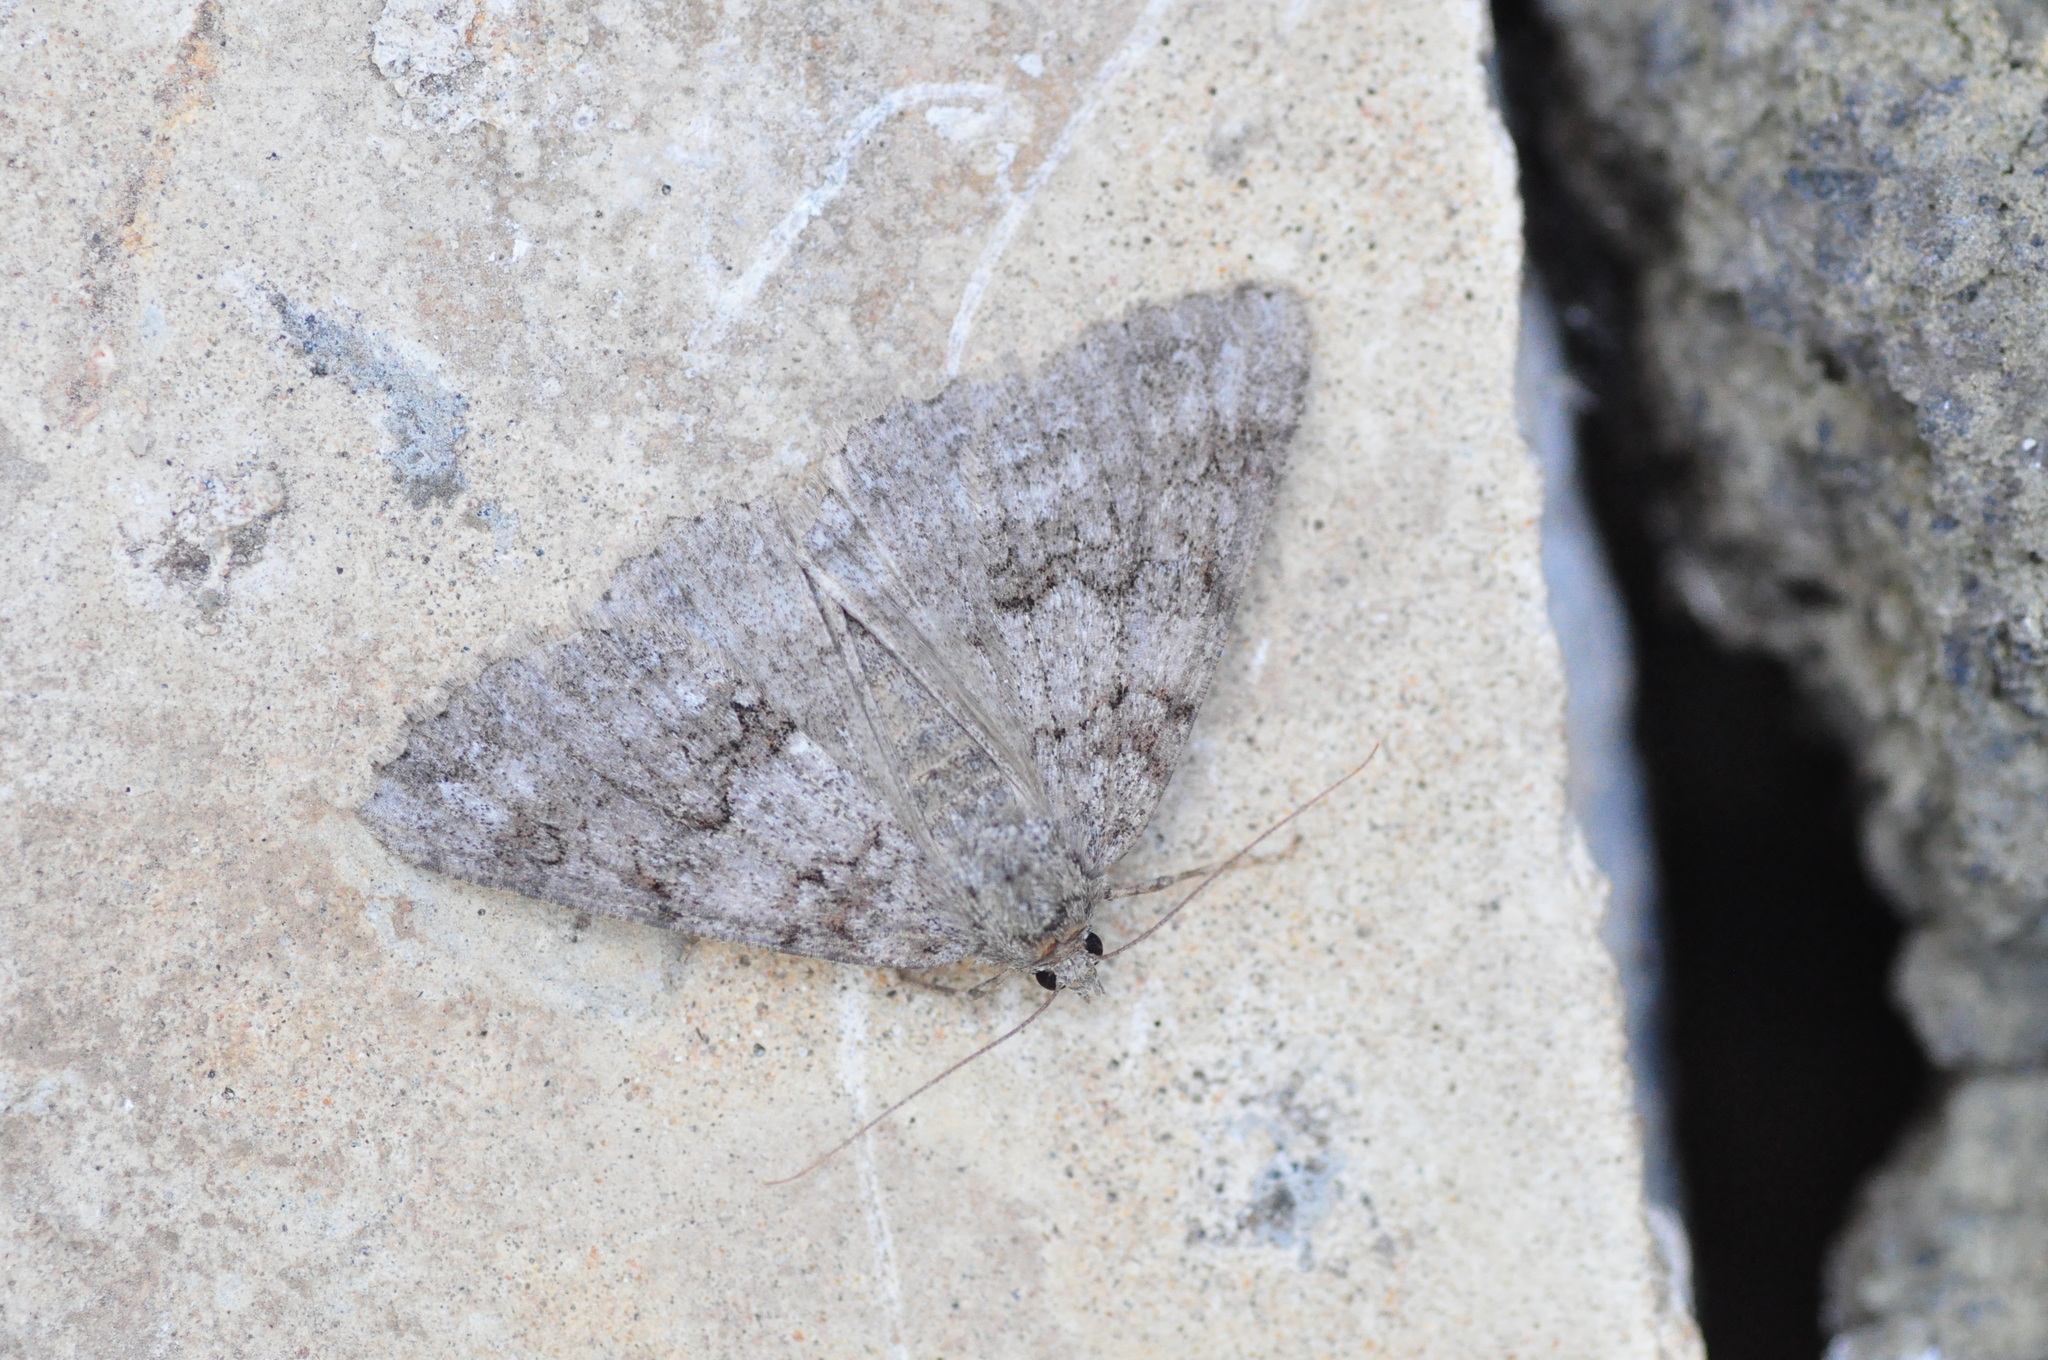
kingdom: Animalia
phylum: Arthropoda
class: Insecta
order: Lepidoptera
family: Geometridae
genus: Ascotis
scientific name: Ascotis fortunata
